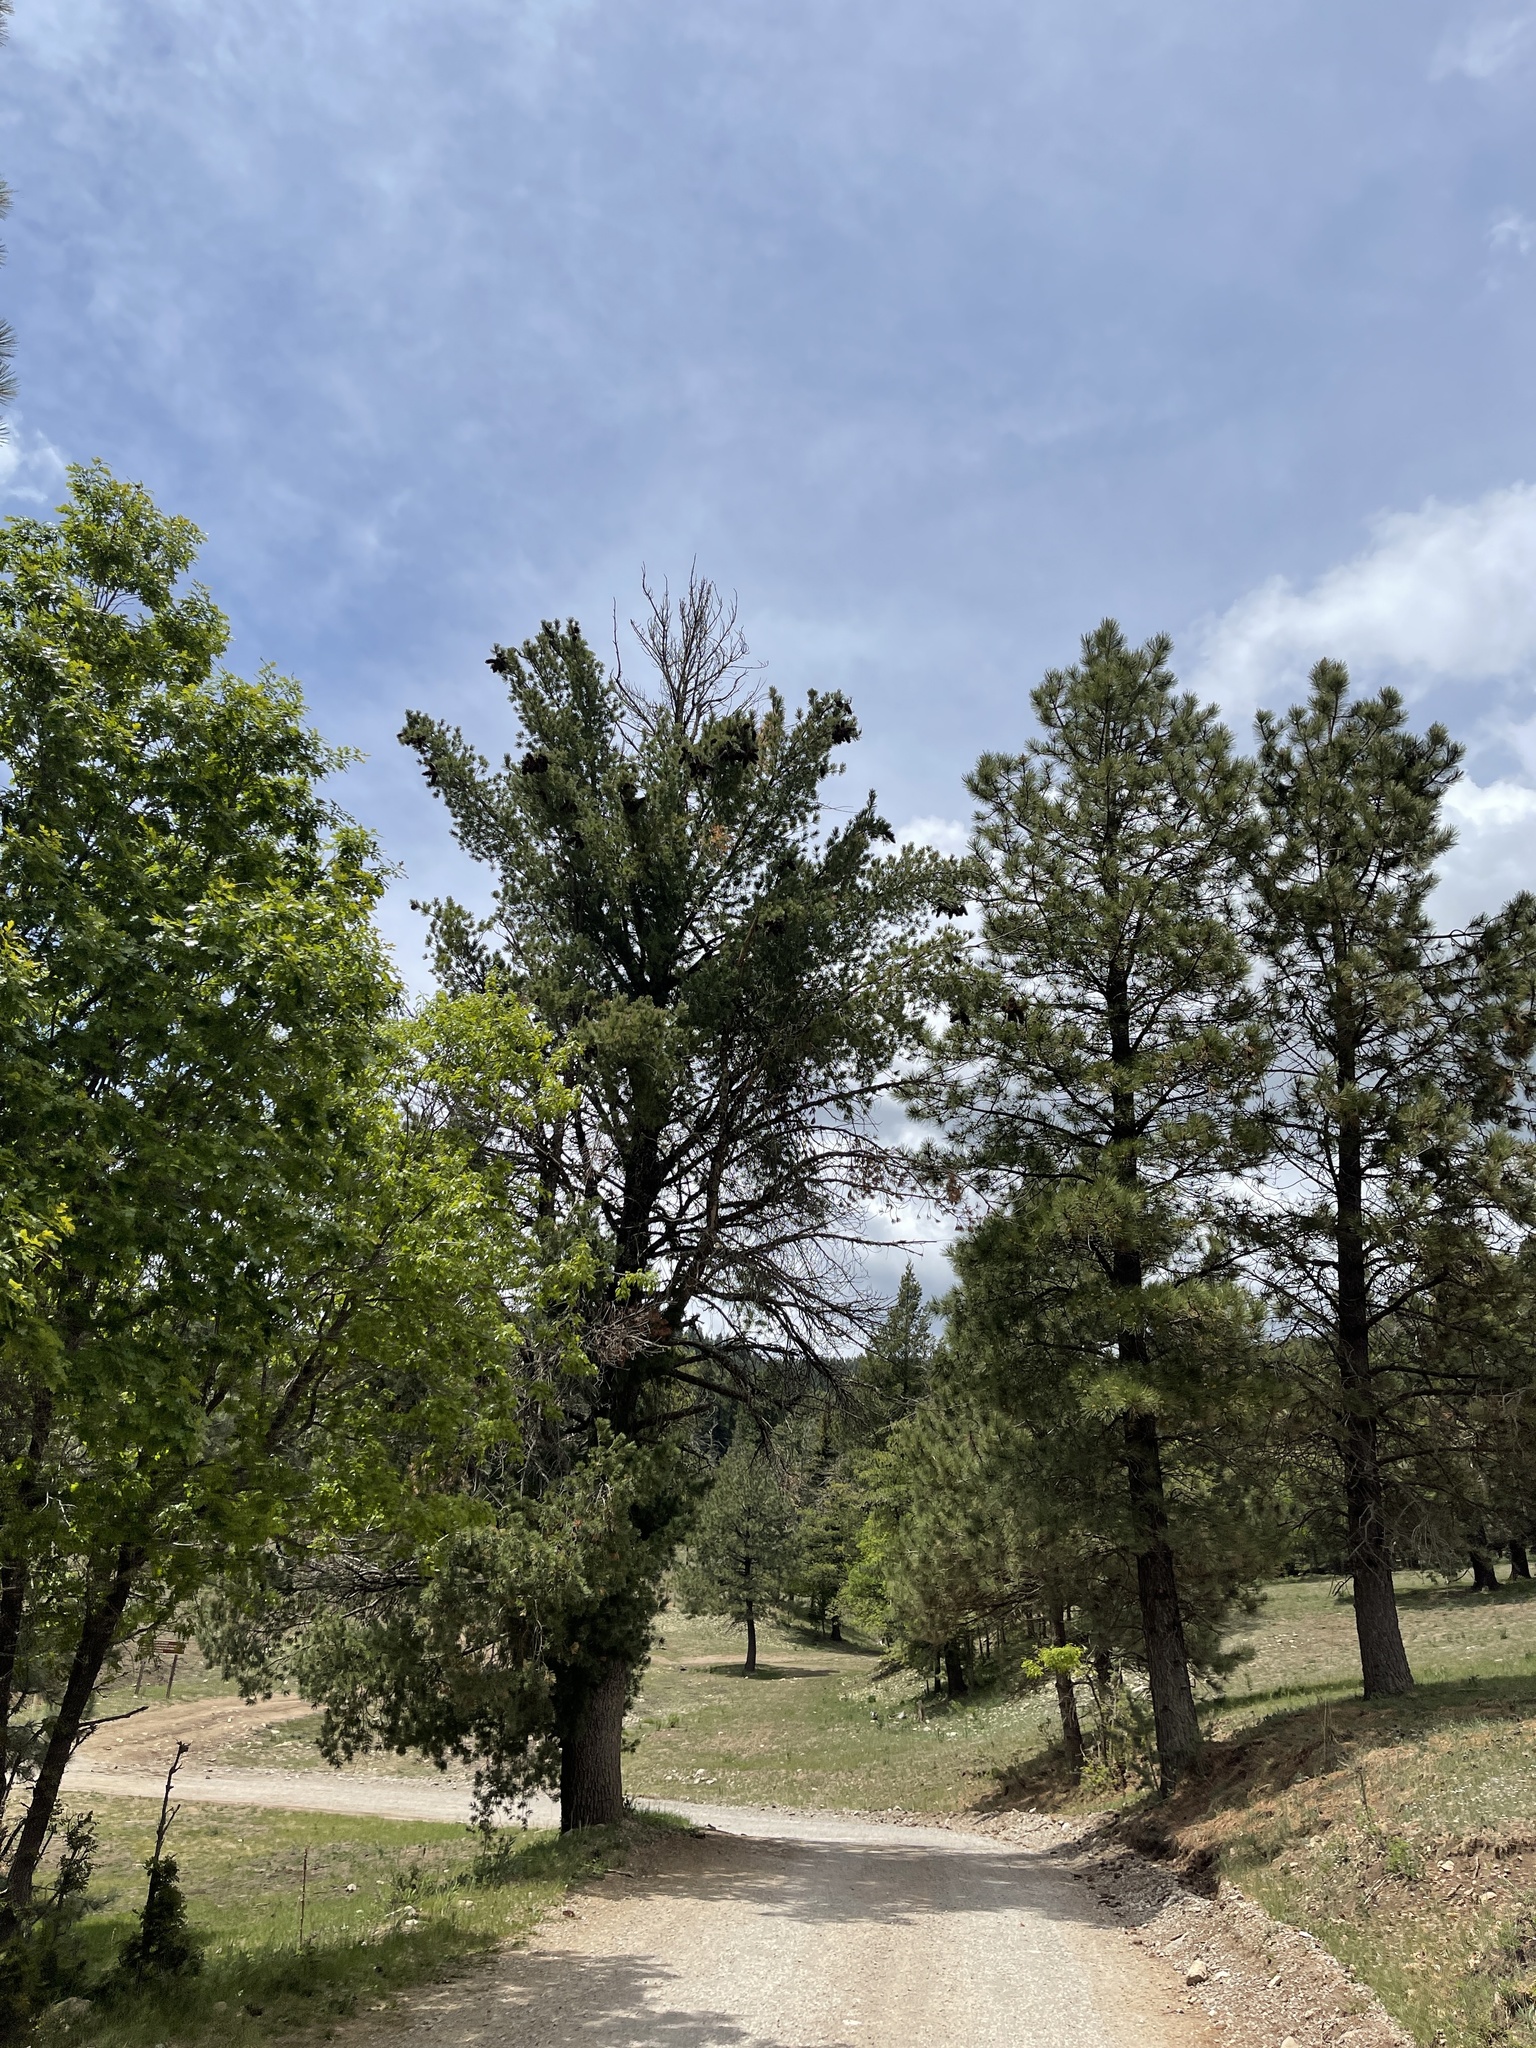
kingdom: Plantae
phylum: Tracheophyta
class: Pinopsida
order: Pinales
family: Pinaceae
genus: Pinus
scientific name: Pinus strobiformis
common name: Southwestern white pine
